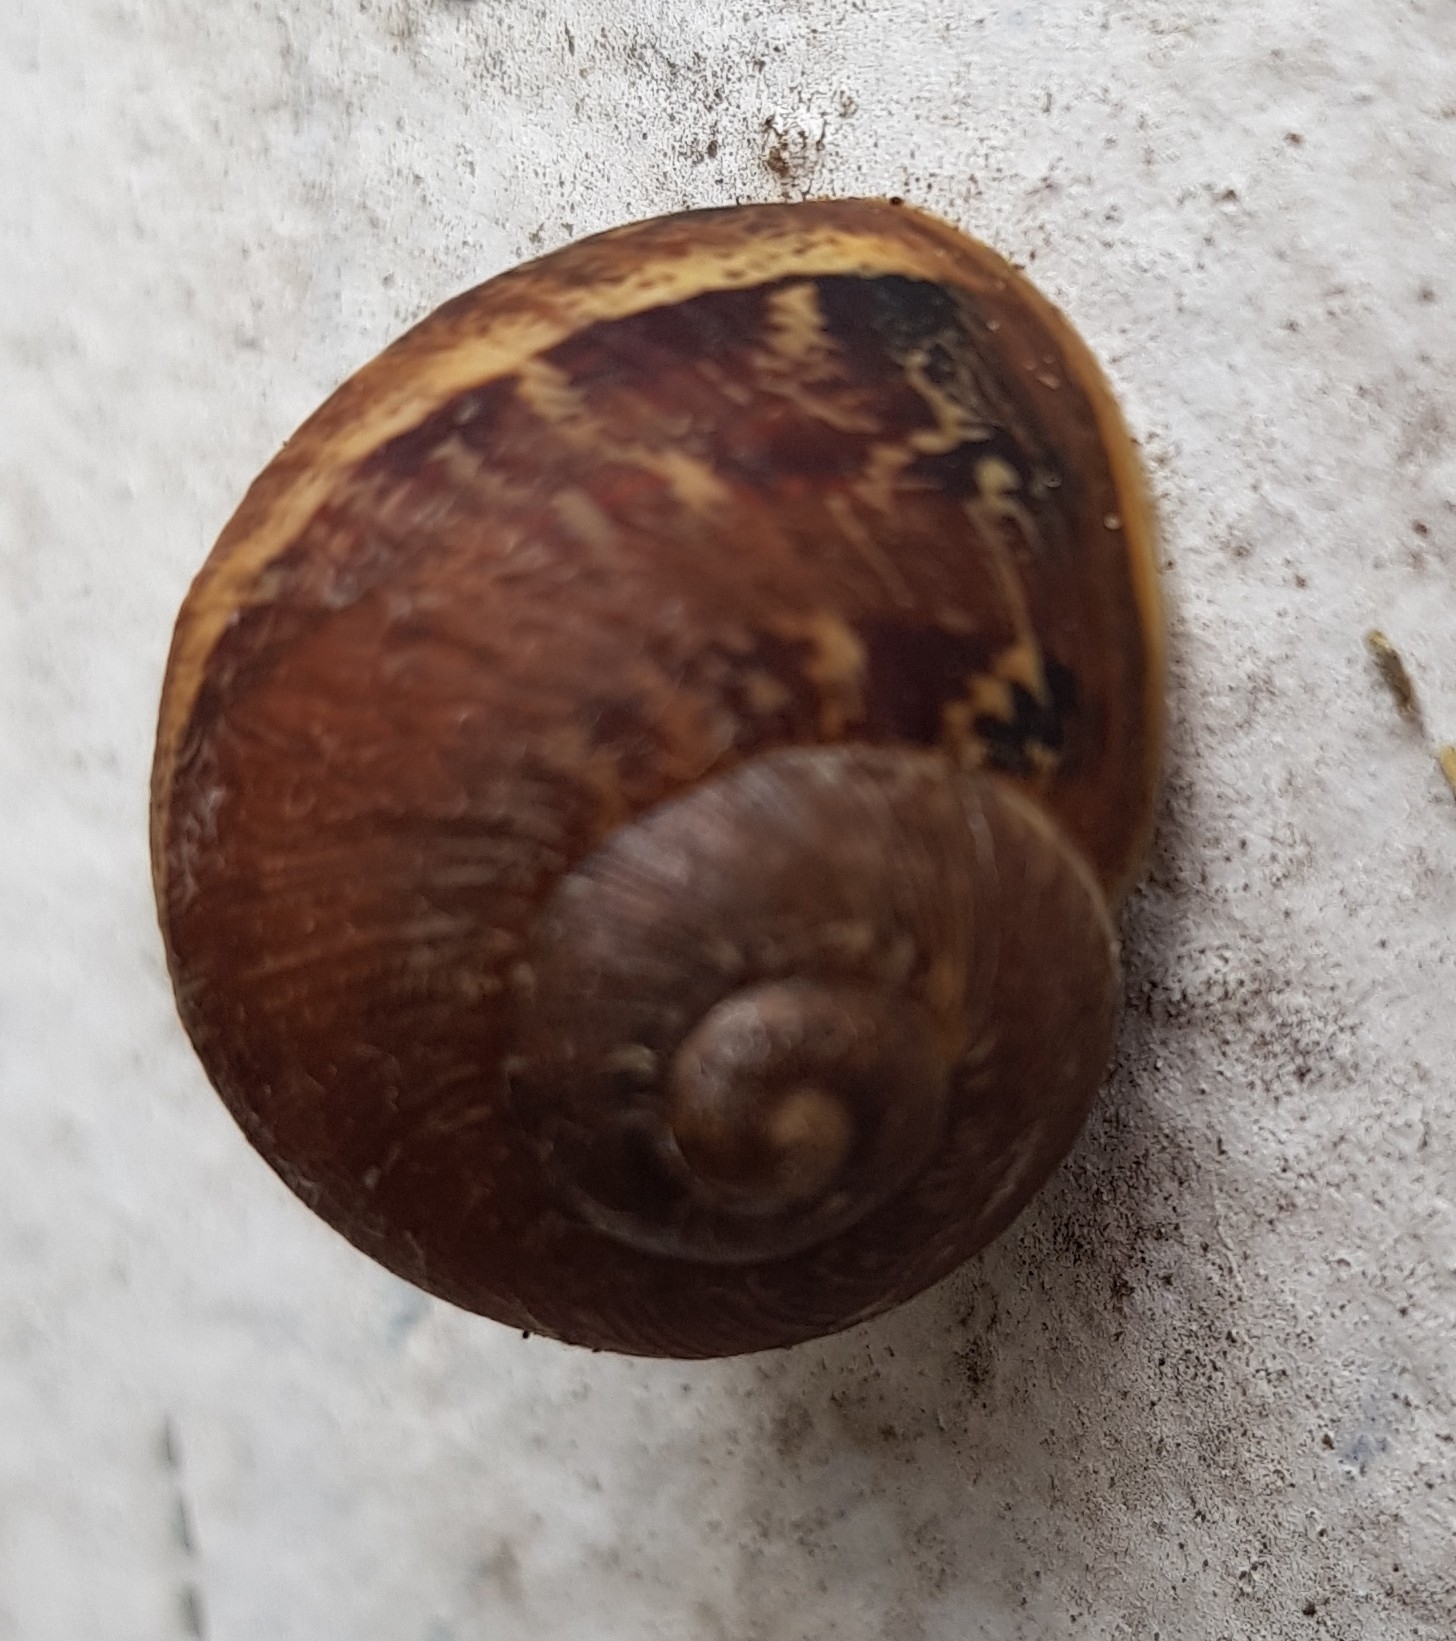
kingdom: Animalia
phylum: Mollusca
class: Gastropoda
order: Stylommatophora
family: Helicidae
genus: Cornu
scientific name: Cornu aspersum
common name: Brown garden snail
